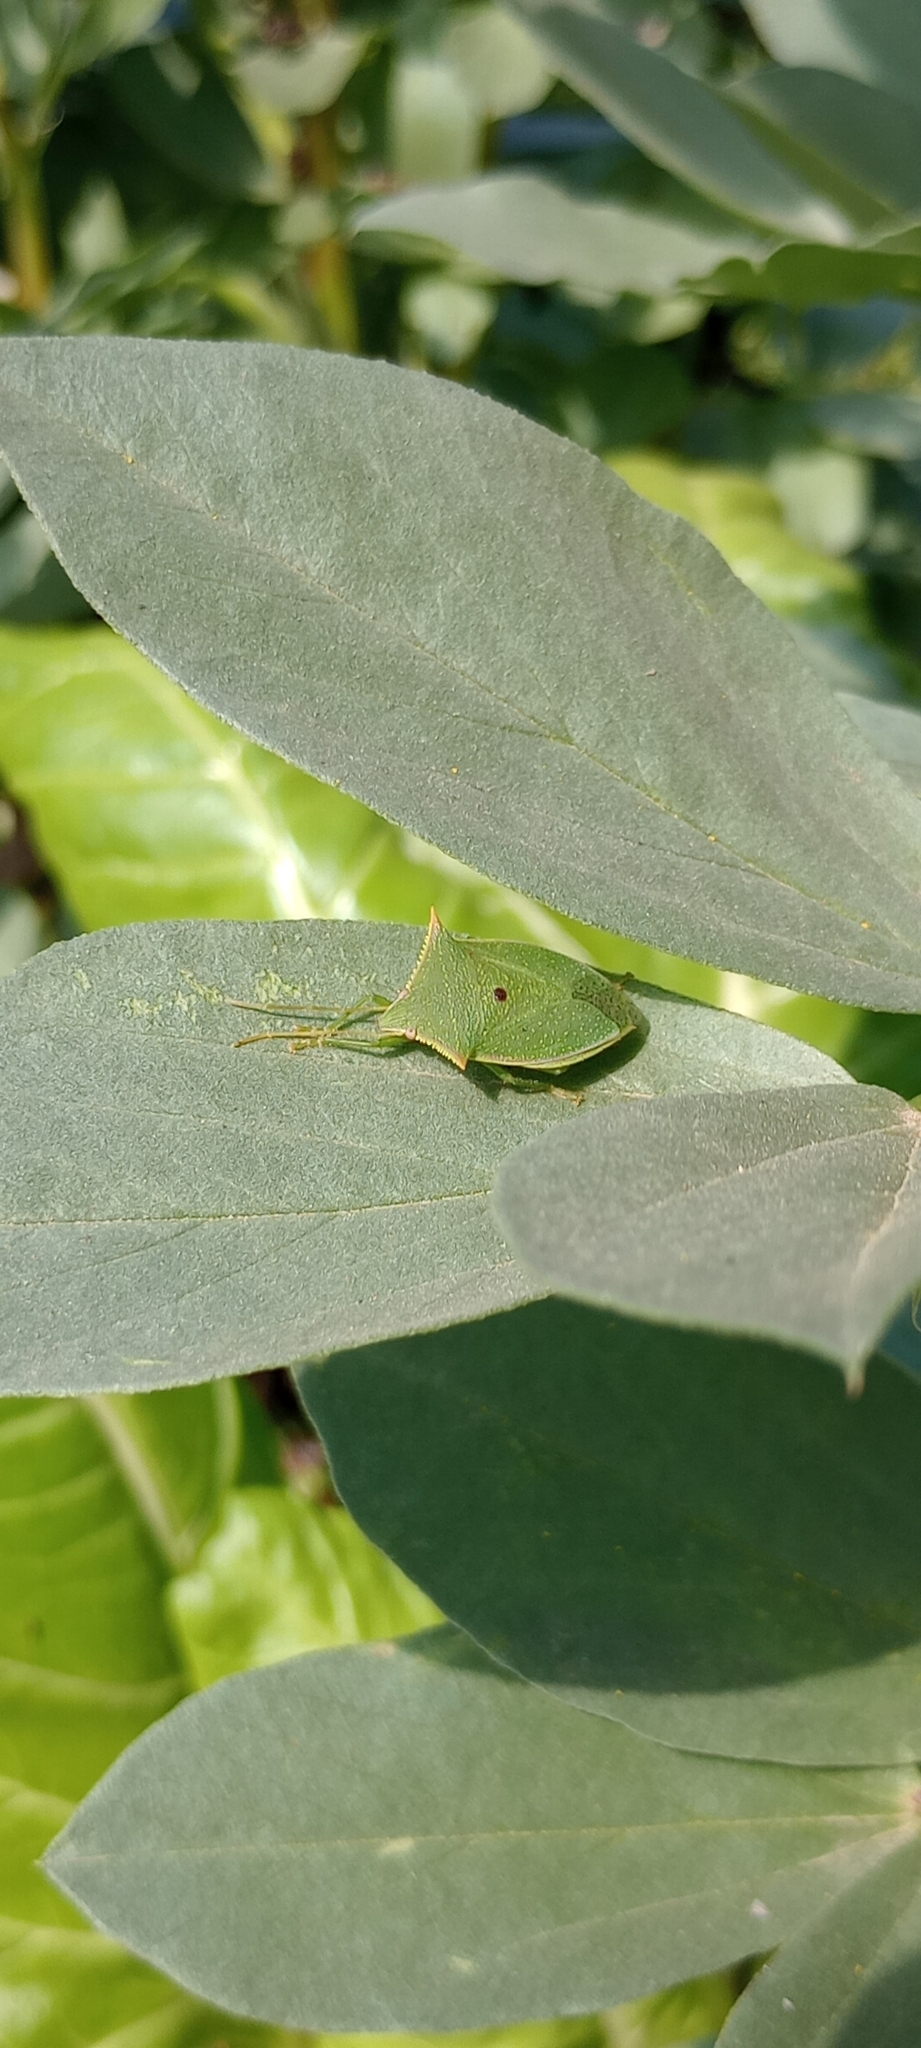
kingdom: Animalia
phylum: Arthropoda
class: Insecta
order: Hemiptera
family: Pentatomidae
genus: Loxa
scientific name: Loxa deducta
